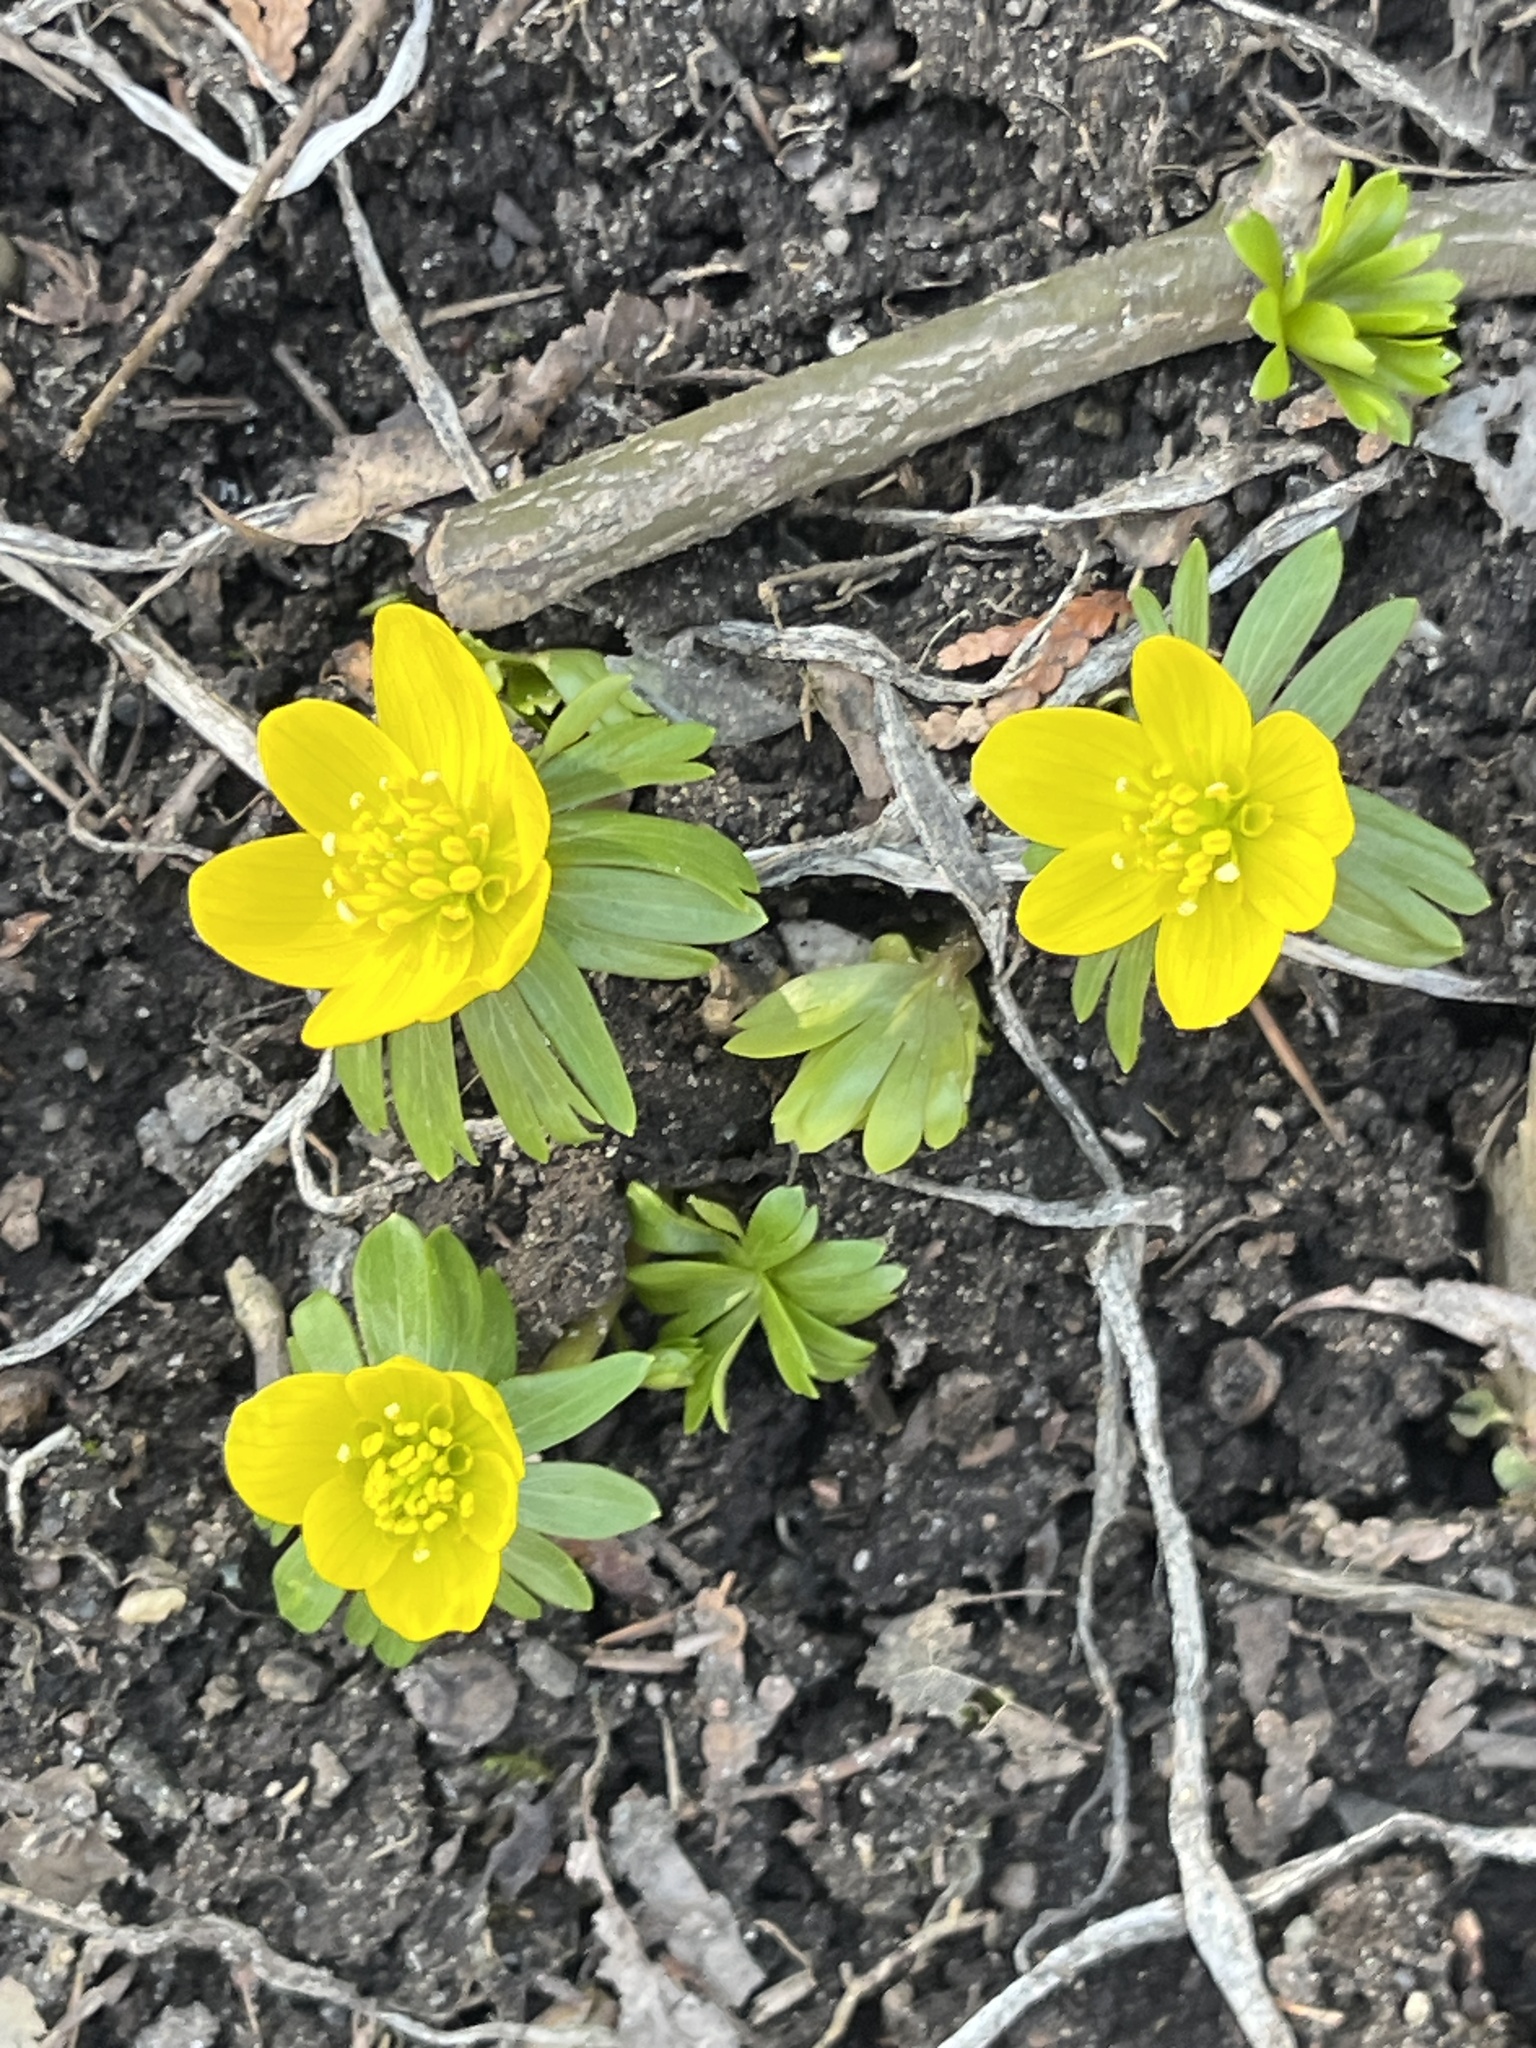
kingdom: Plantae
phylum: Tracheophyta
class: Magnoliopsida
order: Ranunculales
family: Ranunculaceae
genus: Eranthis
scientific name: Eranthis hyemalis
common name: Winter aconite
